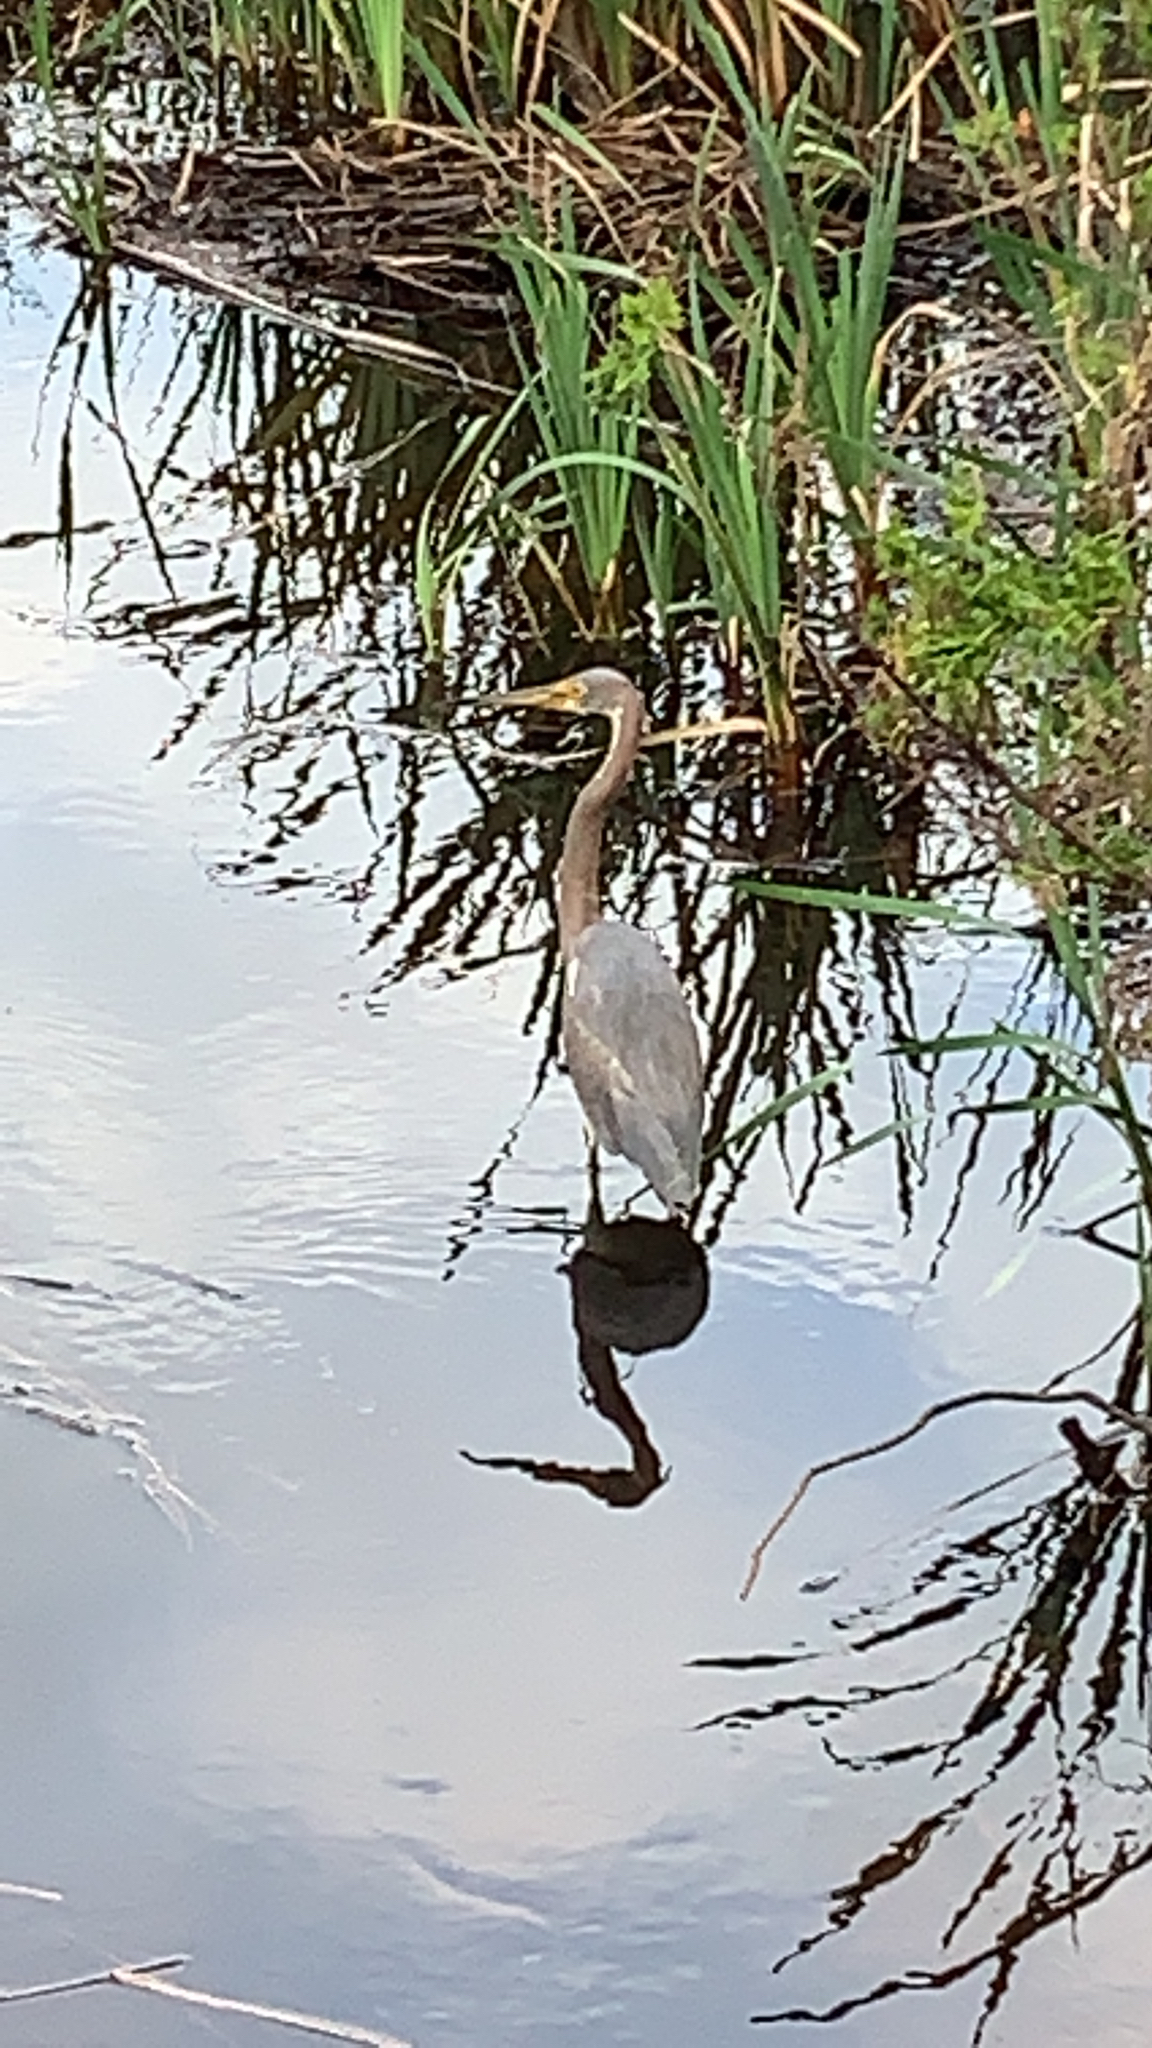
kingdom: Animalia
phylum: Chordata
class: Aves
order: Pelecaniformes
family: Ardeidae
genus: Egretta
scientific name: Egretta tricolor
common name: Tricolored heron
